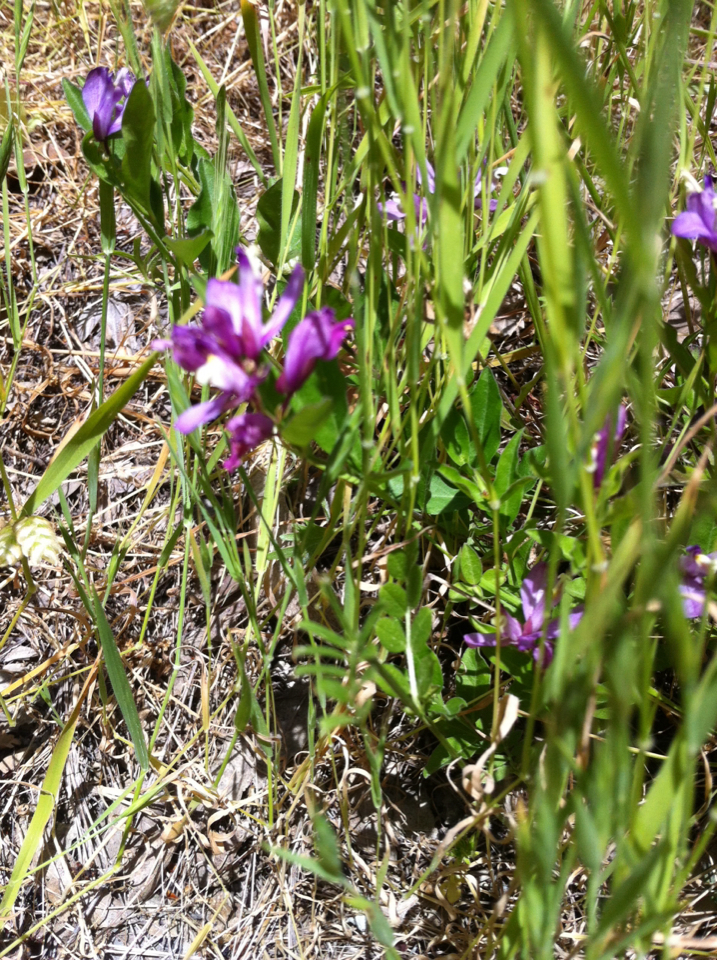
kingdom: Plantae
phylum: Tracheophyta
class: Magnoliopsida
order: Fabales
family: Polygalaceae
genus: Rhinotropis
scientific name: Rhinotropis californica
